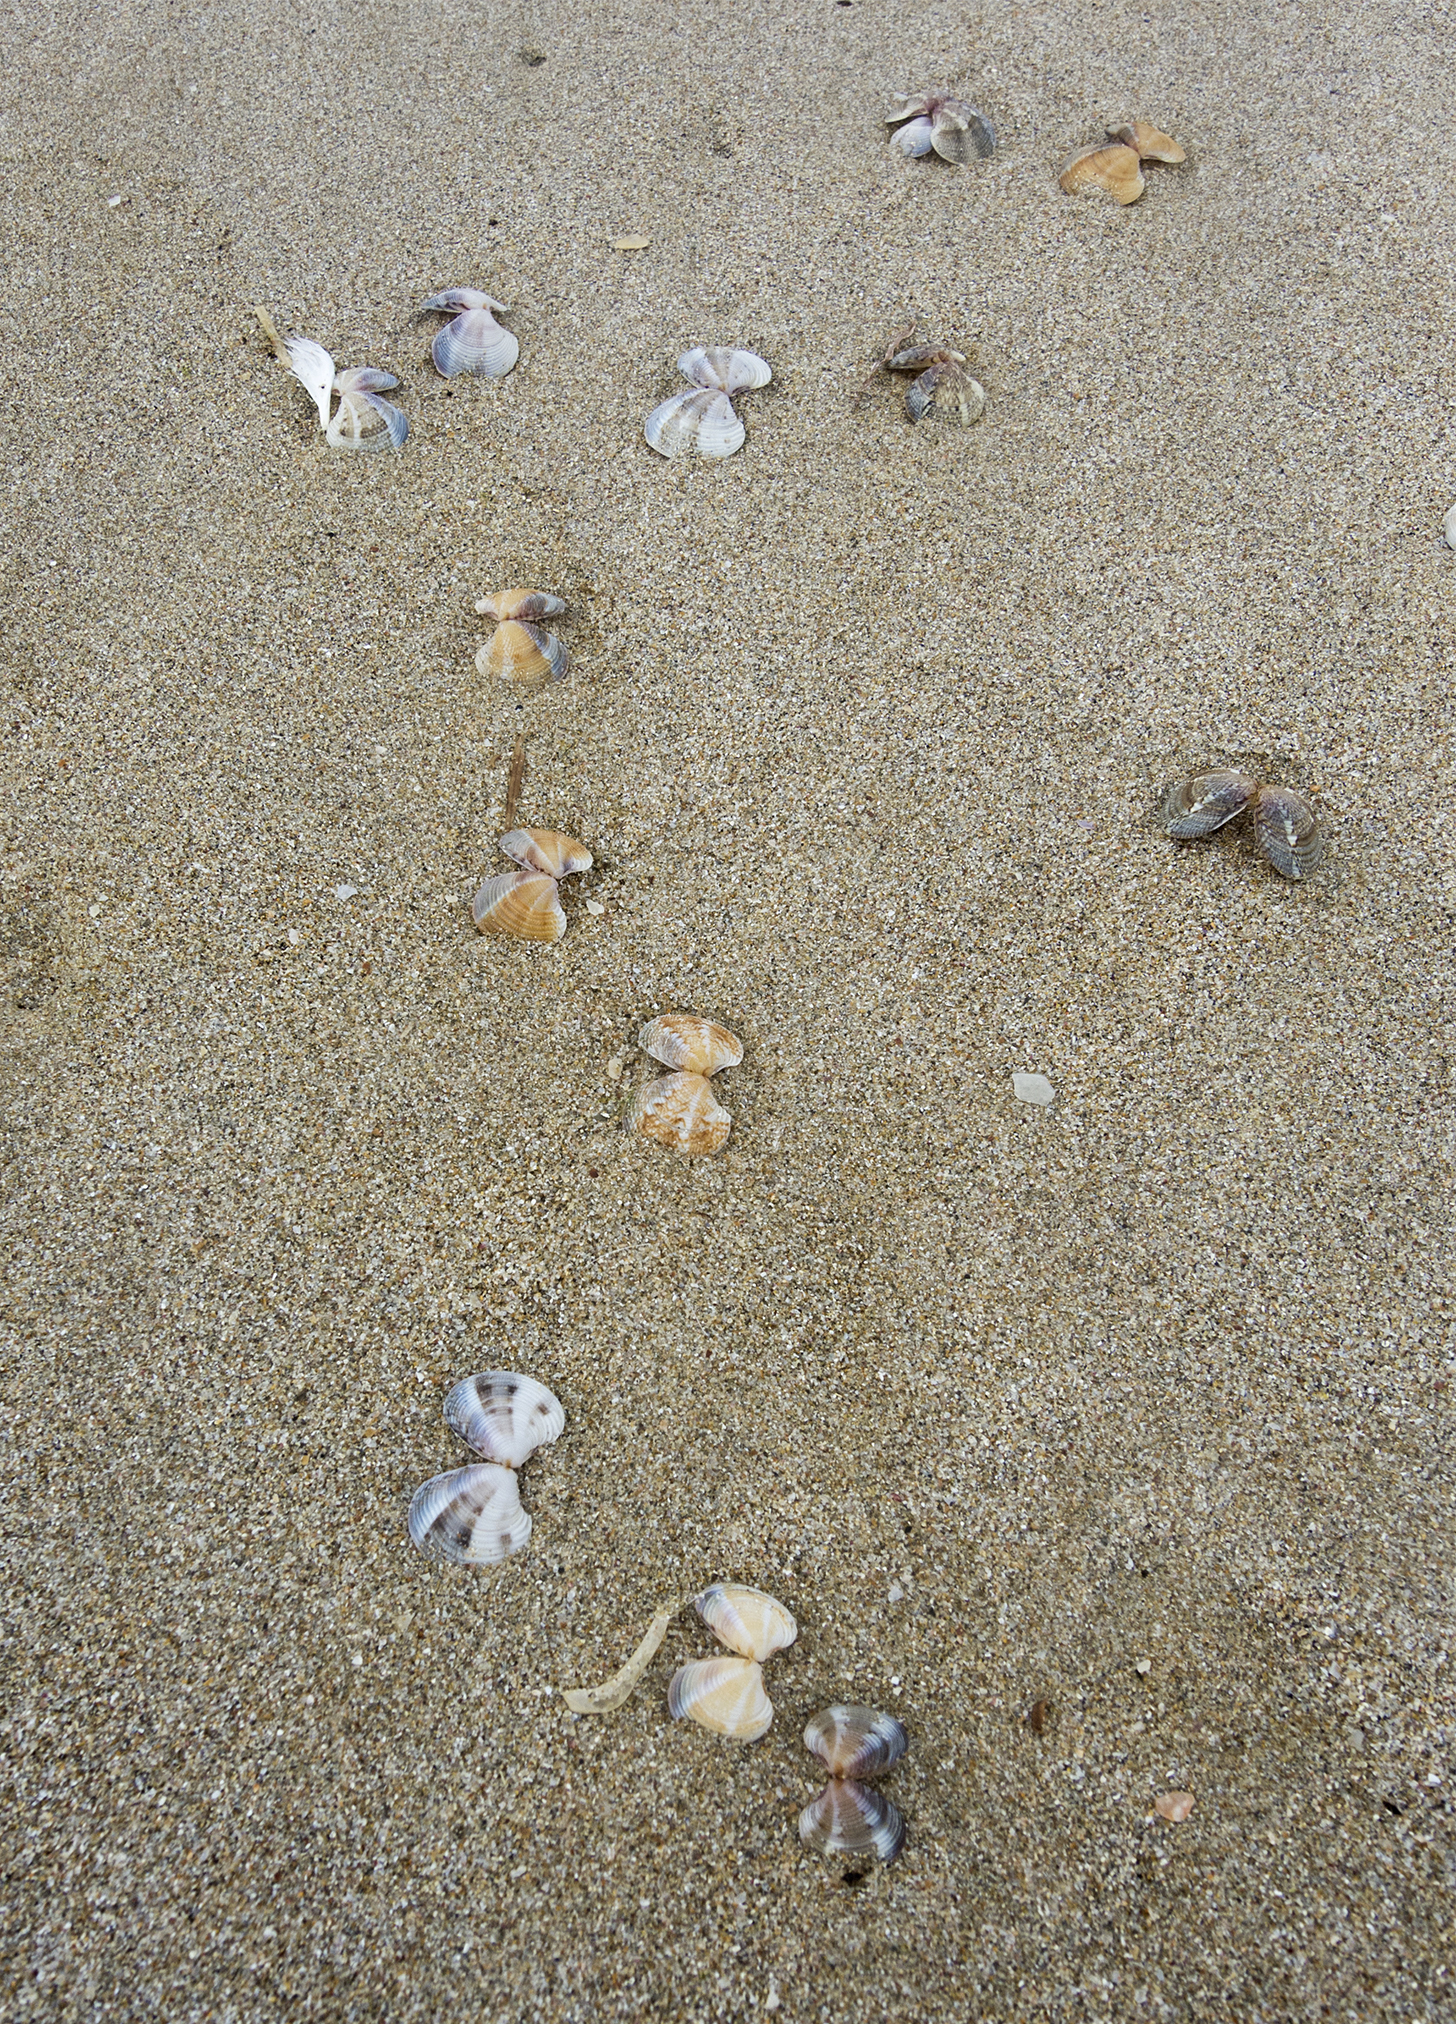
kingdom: Animalia
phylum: Mollusca
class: Bivalvia
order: Venerida
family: Veneridae
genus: Chamelea
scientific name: Chamelea gallina
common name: Chicken venus
